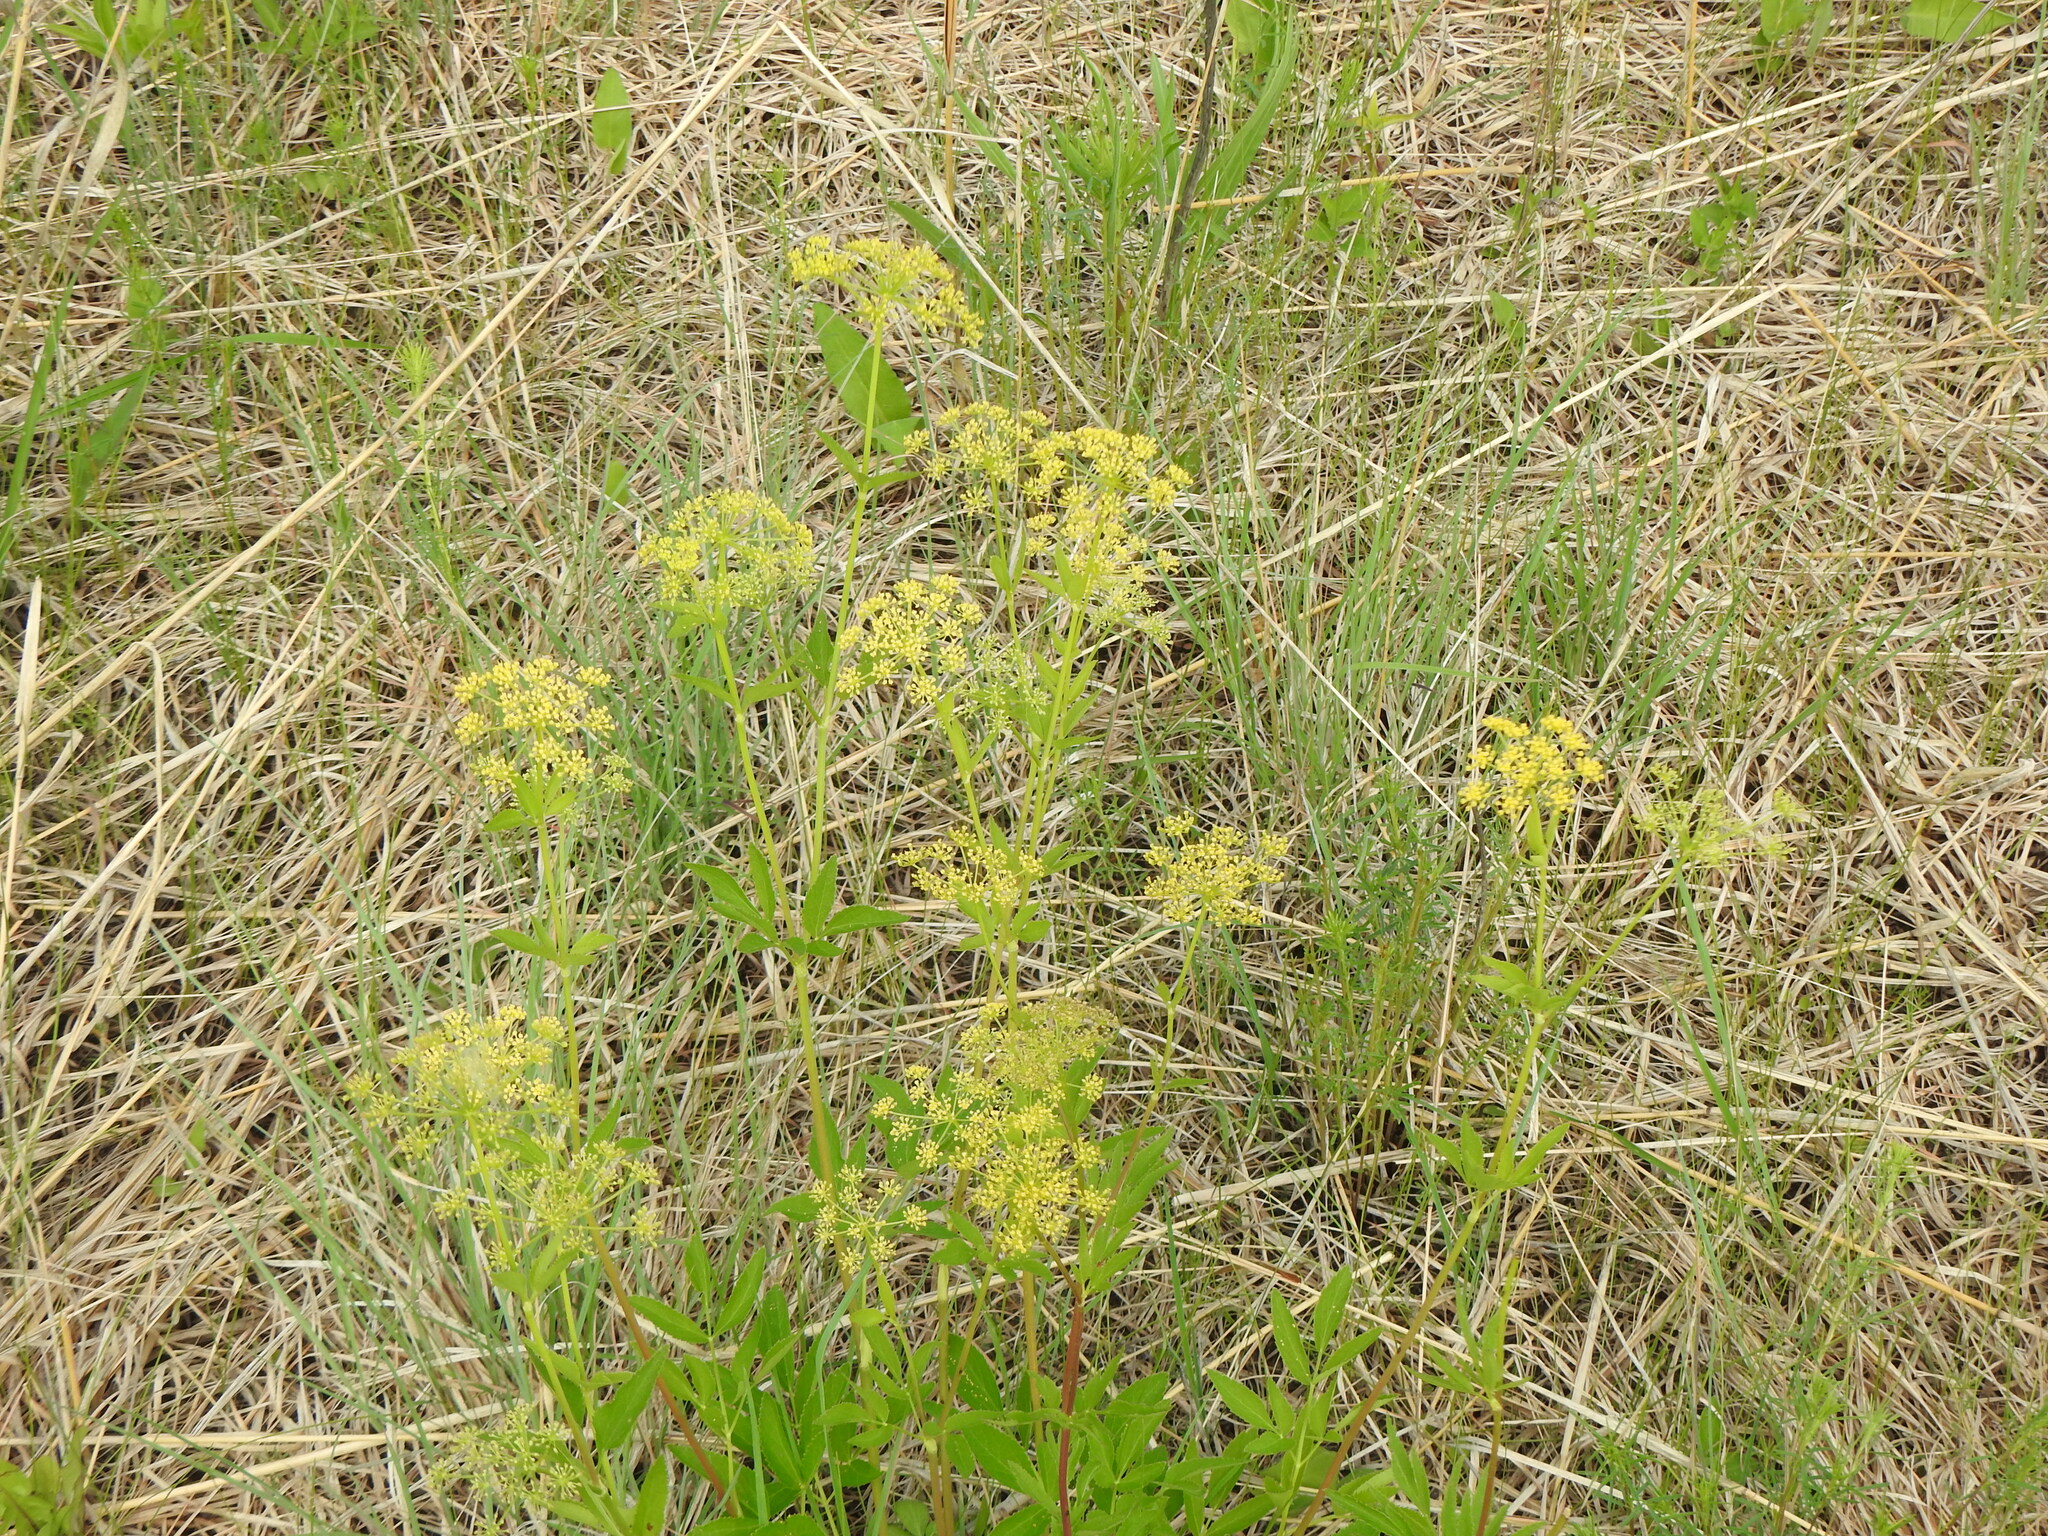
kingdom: Plantae
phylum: Tracheophyta
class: Magnoliopsida
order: Apiales
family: Apiaceae
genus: Zizia
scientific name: Zizia aurea
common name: Golden alexanders
